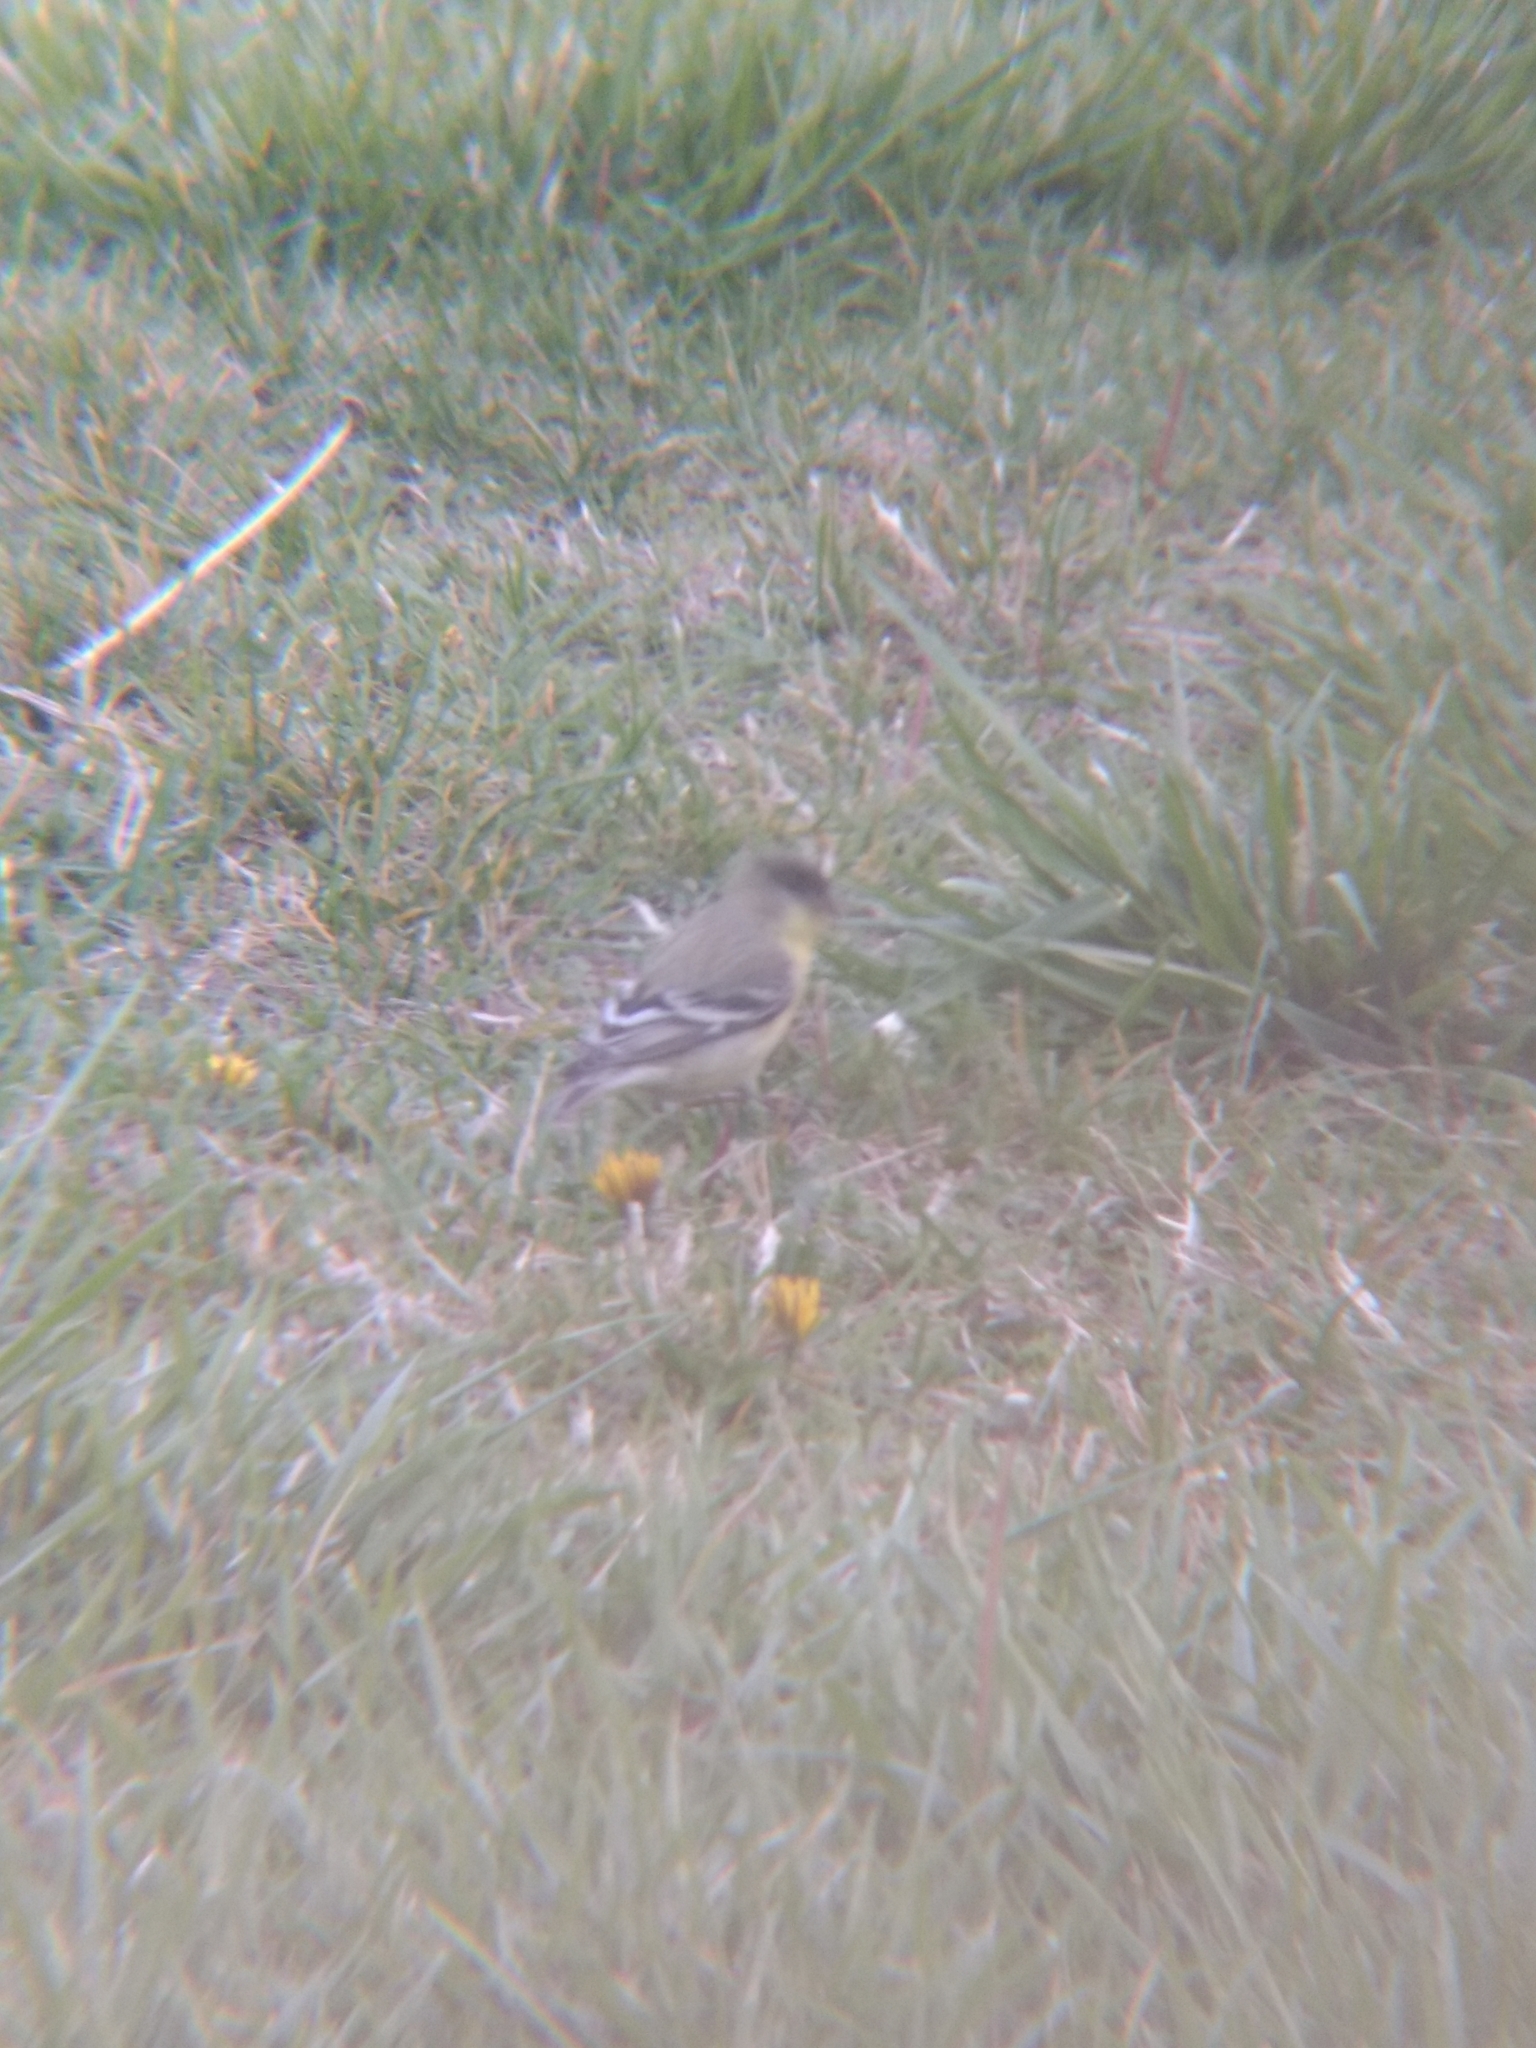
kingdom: Animalia
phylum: Chordata
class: Aves
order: Passeriformes
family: Fringillidae
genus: Spinus
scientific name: Spinus psaltria
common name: Lesser goldfinch
